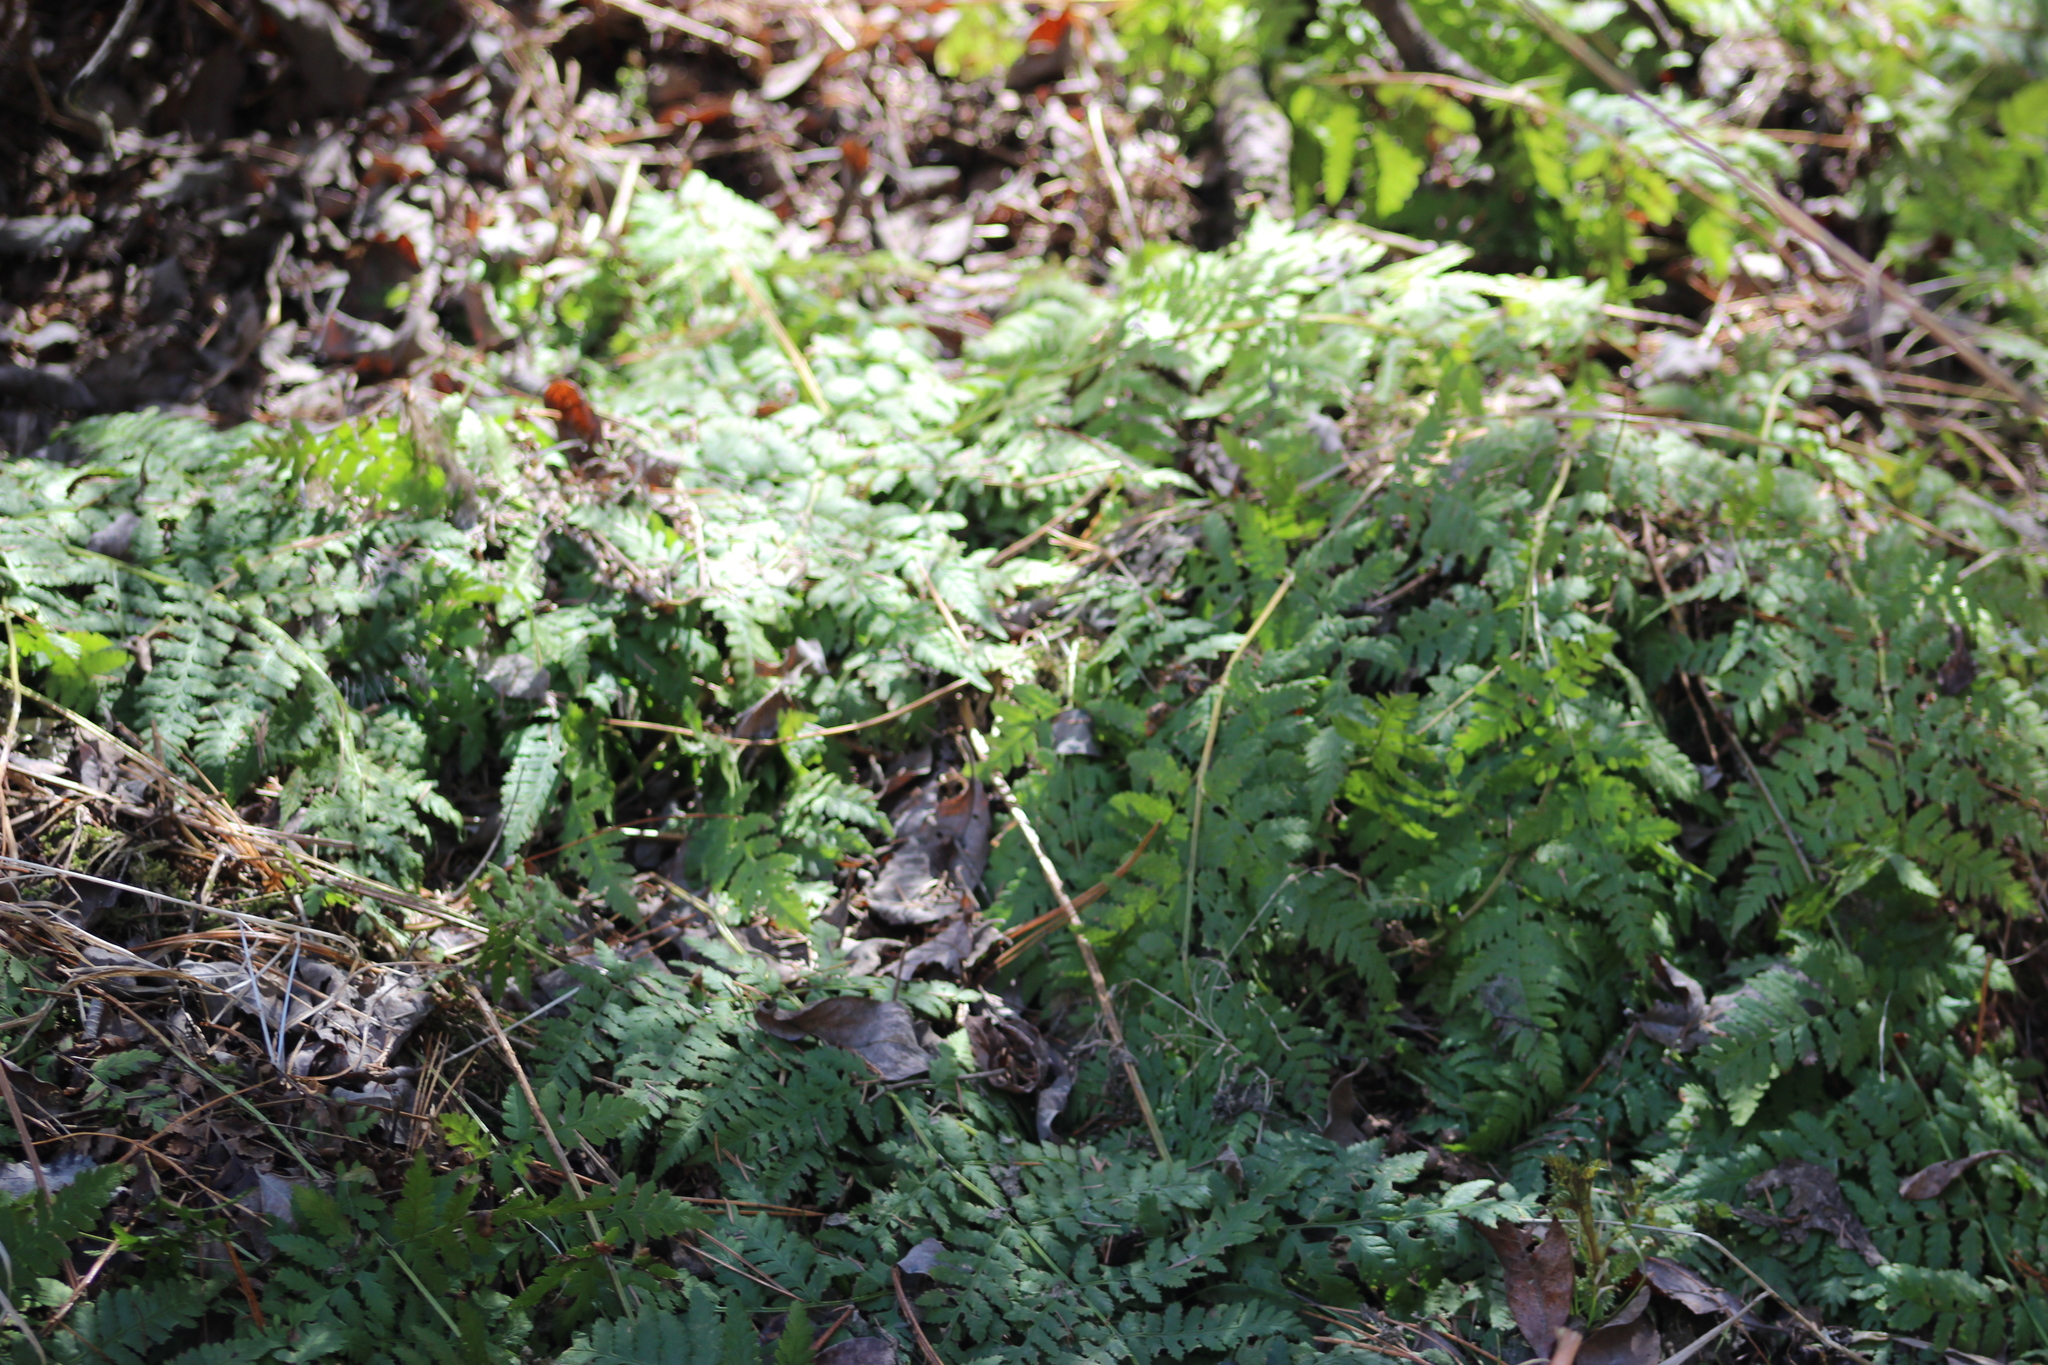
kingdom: Plantae
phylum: Tracheophyta
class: Polypodiopsida
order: Polypodiales
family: Dryopteridaceae
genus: Dryopteris
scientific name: Dryopteris carthusiana
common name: Narrow buckler-fern
